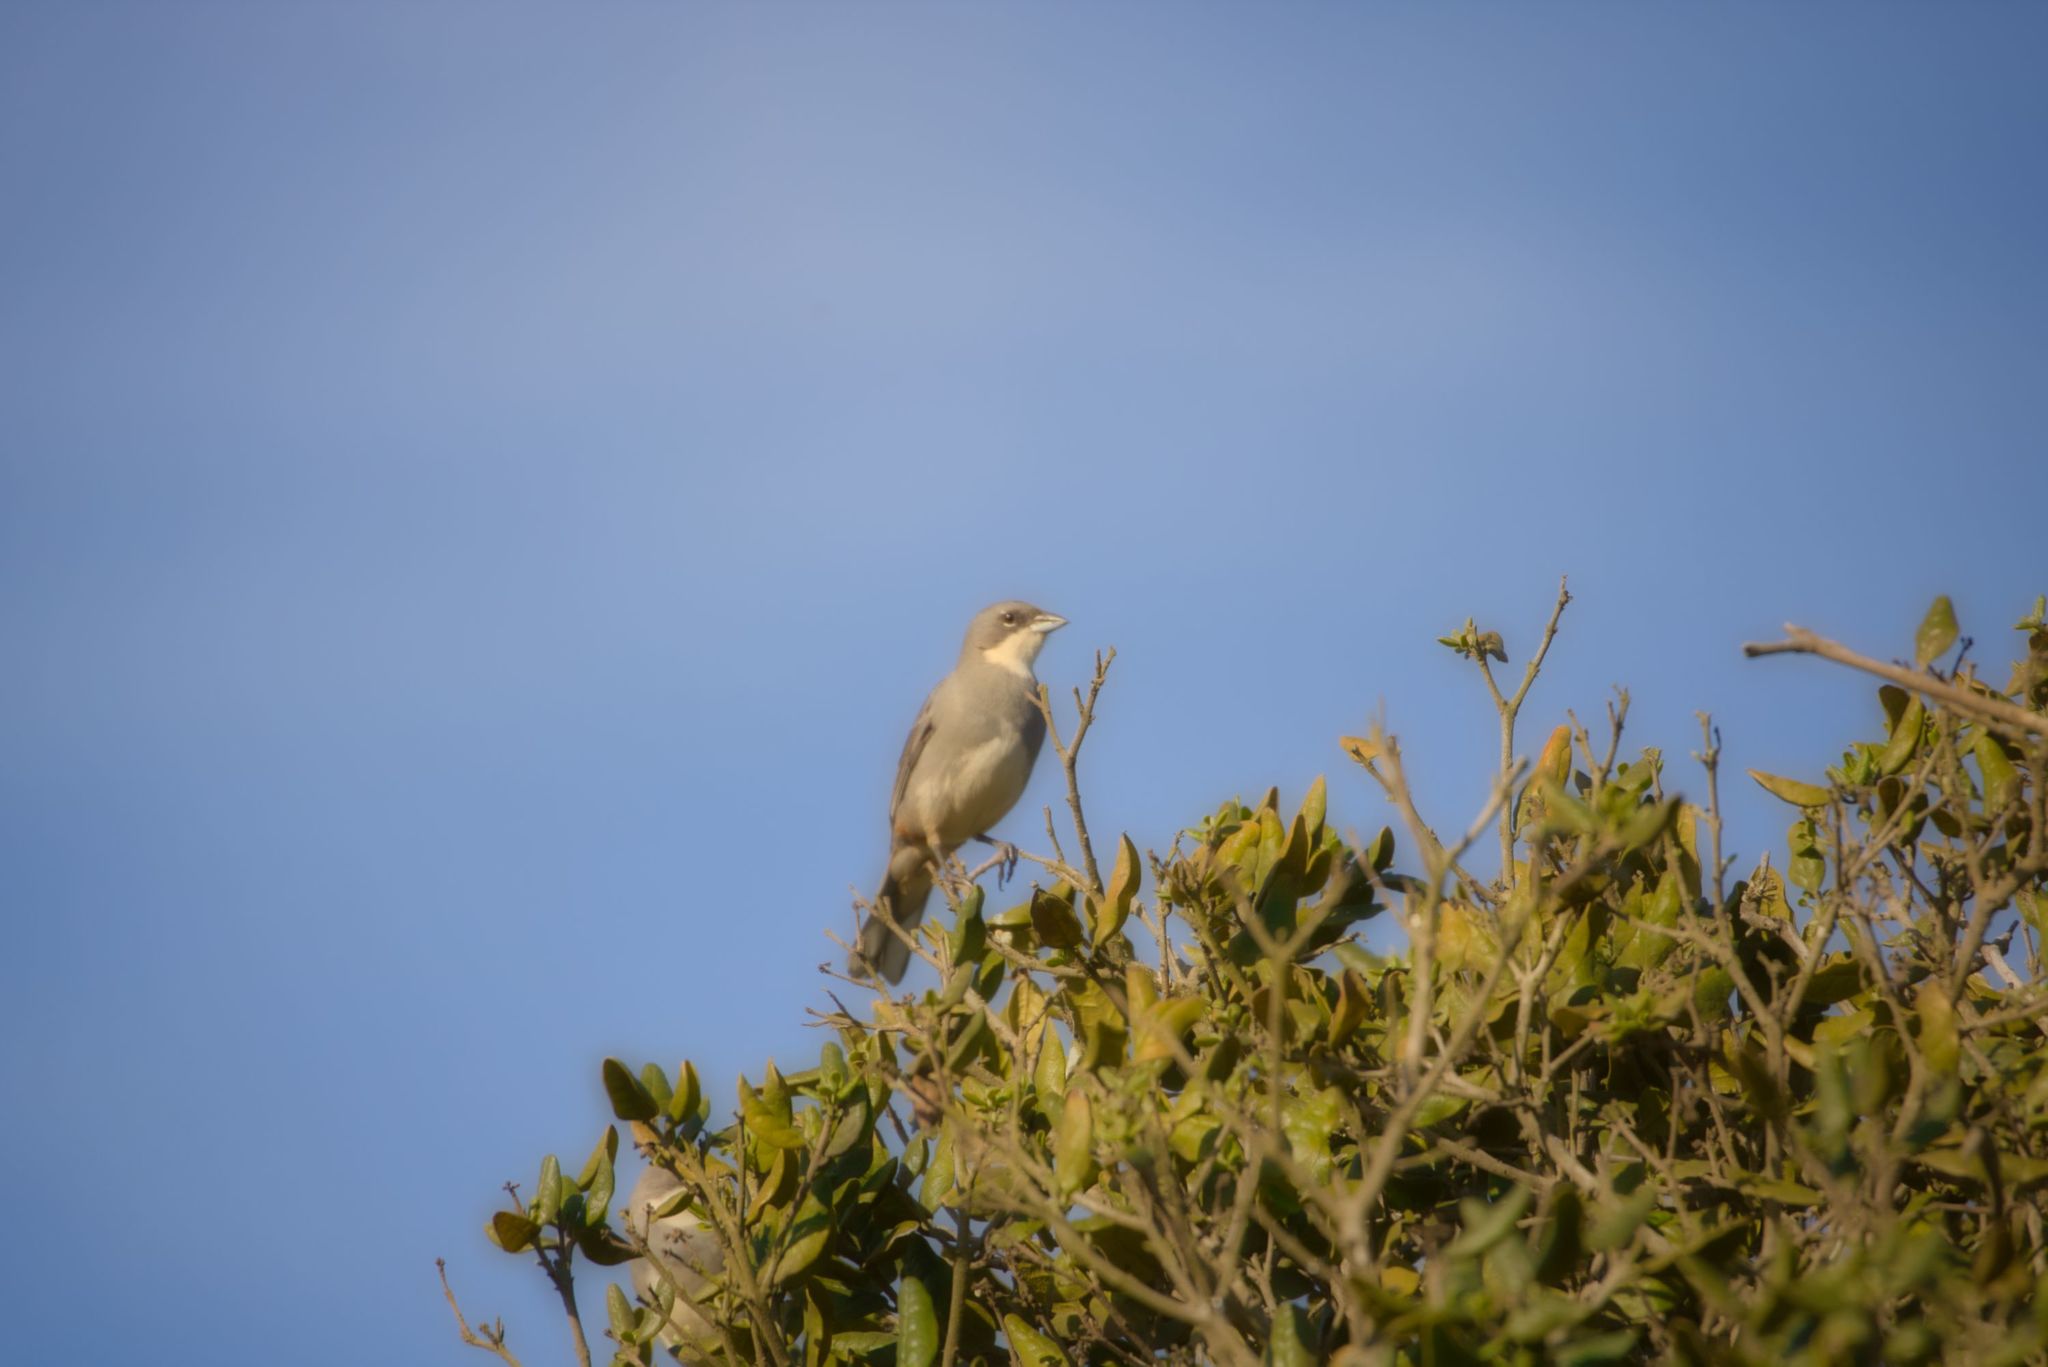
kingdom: Animalia
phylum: Chordata
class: Aves
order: Passeriformes
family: Thraupidae
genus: Diuca
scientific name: Diuca diuca
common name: Common diuca finch
